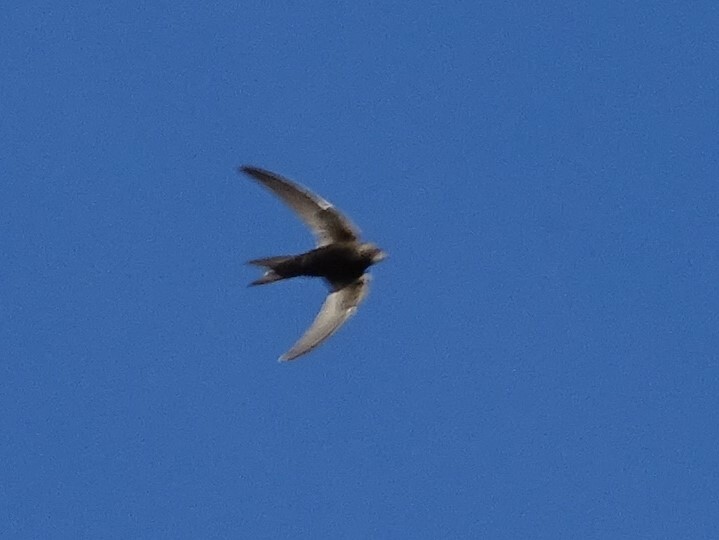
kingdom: Animalia
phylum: Chordata
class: Aves
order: Apodiformes
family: Apodidae
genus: Apus
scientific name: Apus apus
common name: Common swift
